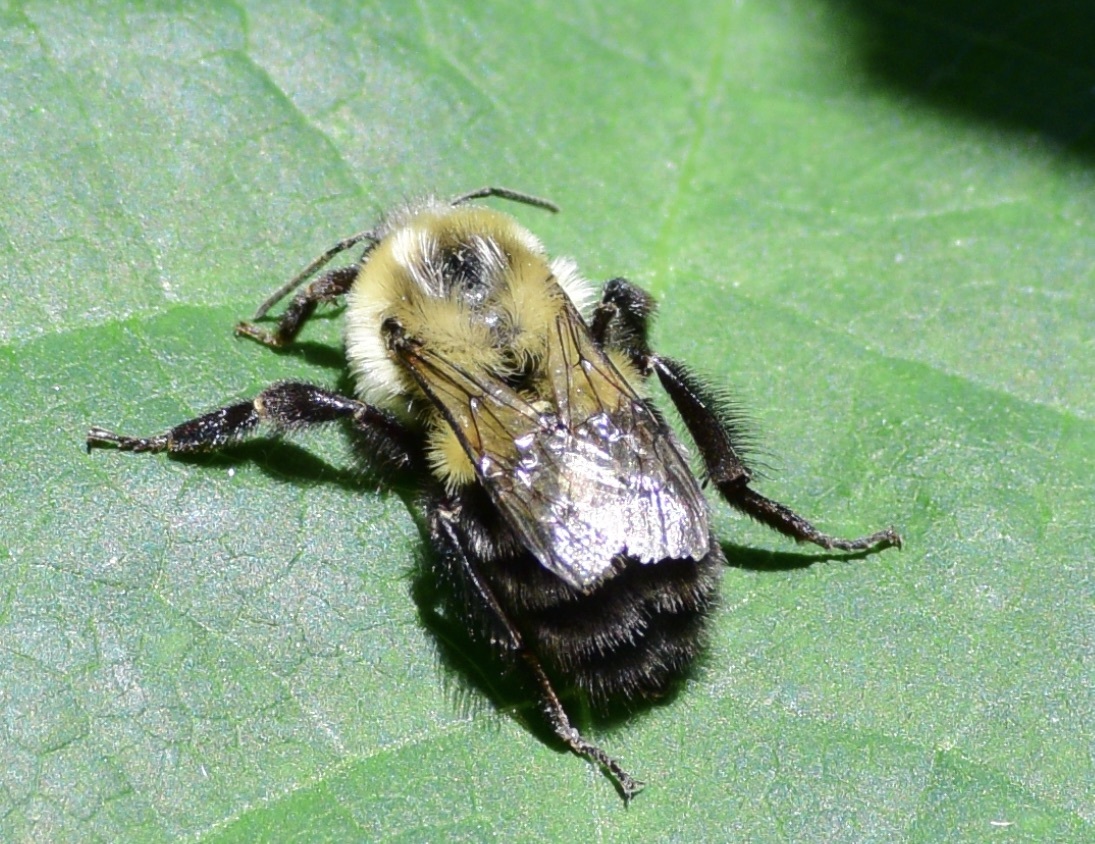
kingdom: Animalia
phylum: Arthropoda
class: Insecta
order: Hymenoptera
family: Apidae
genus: Bombus
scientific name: Bombus impatiens
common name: Common eastern bumble bee
